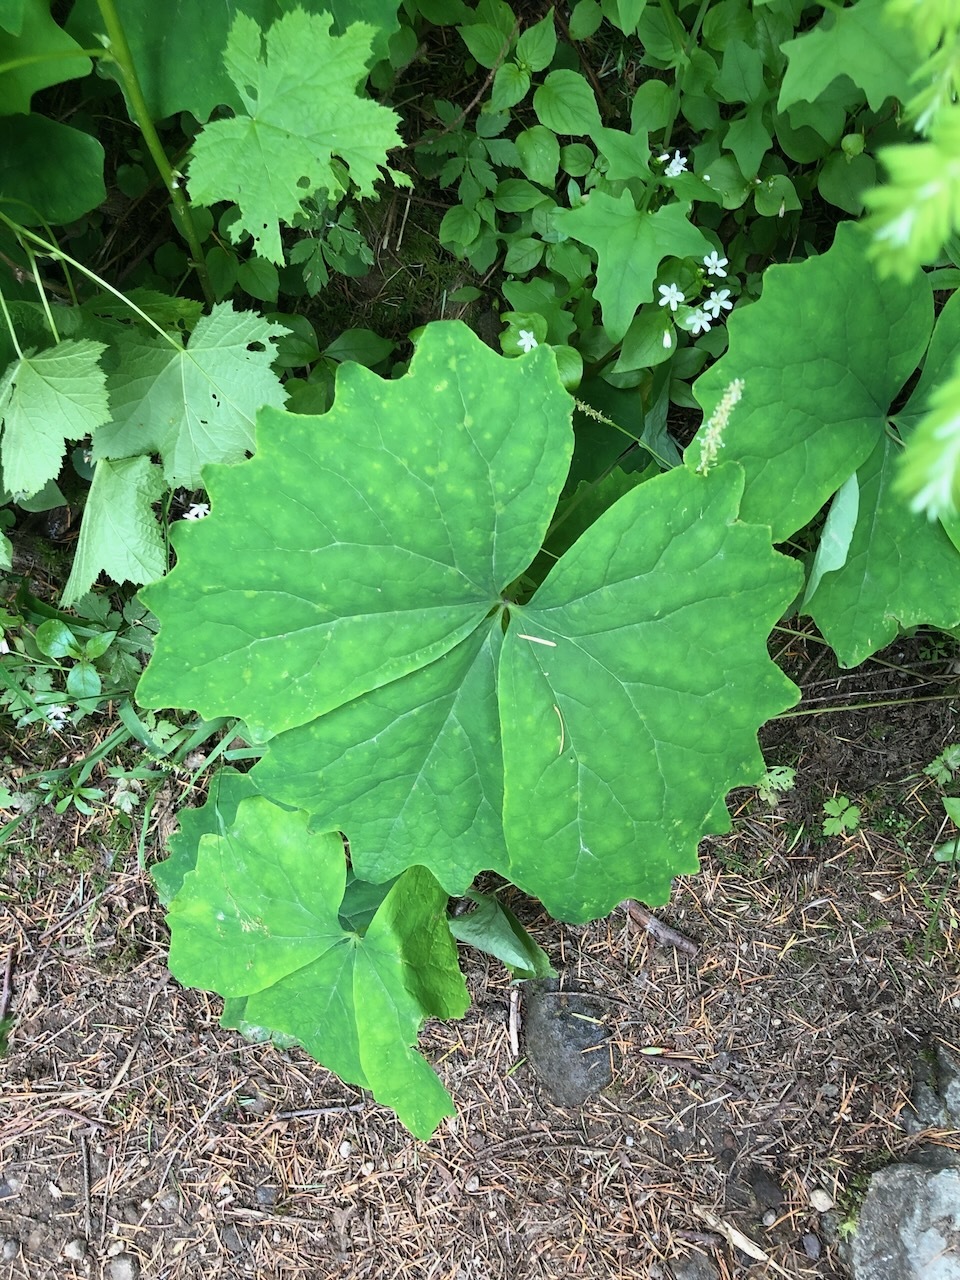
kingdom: Plantae
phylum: Tracheophyta
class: Magnoliopsida
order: Ranunculales
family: Berberidaceae
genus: Achlys
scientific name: Achlys triphylla
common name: Vanilla-leaf
